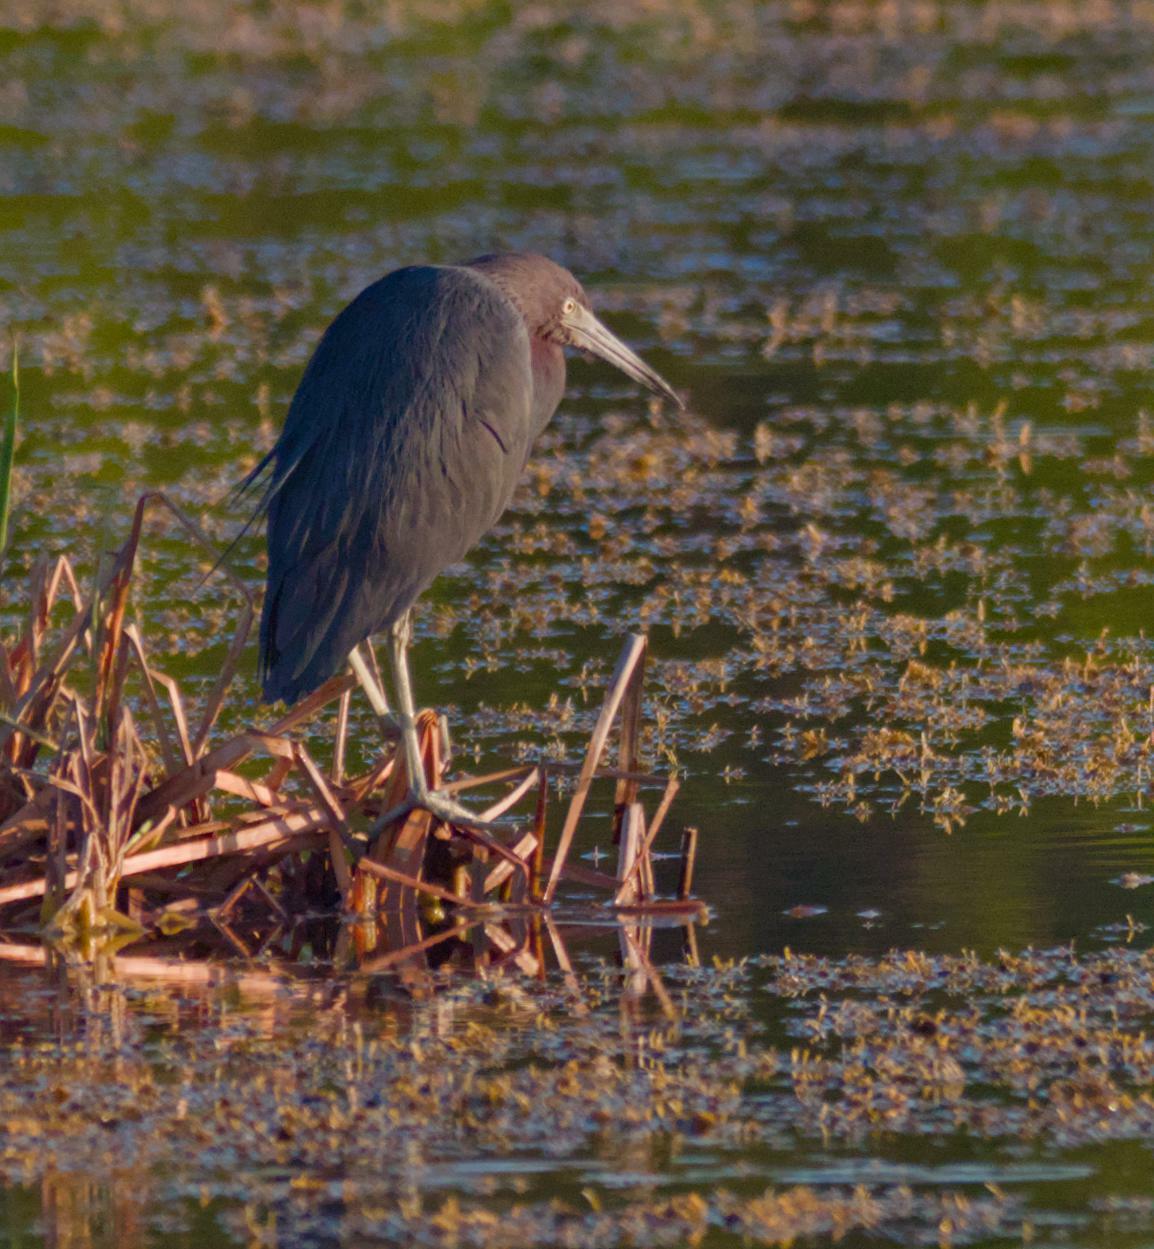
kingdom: Animalia
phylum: Chordata
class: Aves
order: Pelecaniformes
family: Ardeidae
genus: Egretta
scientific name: Egretta caerulea
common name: Little blue heron
